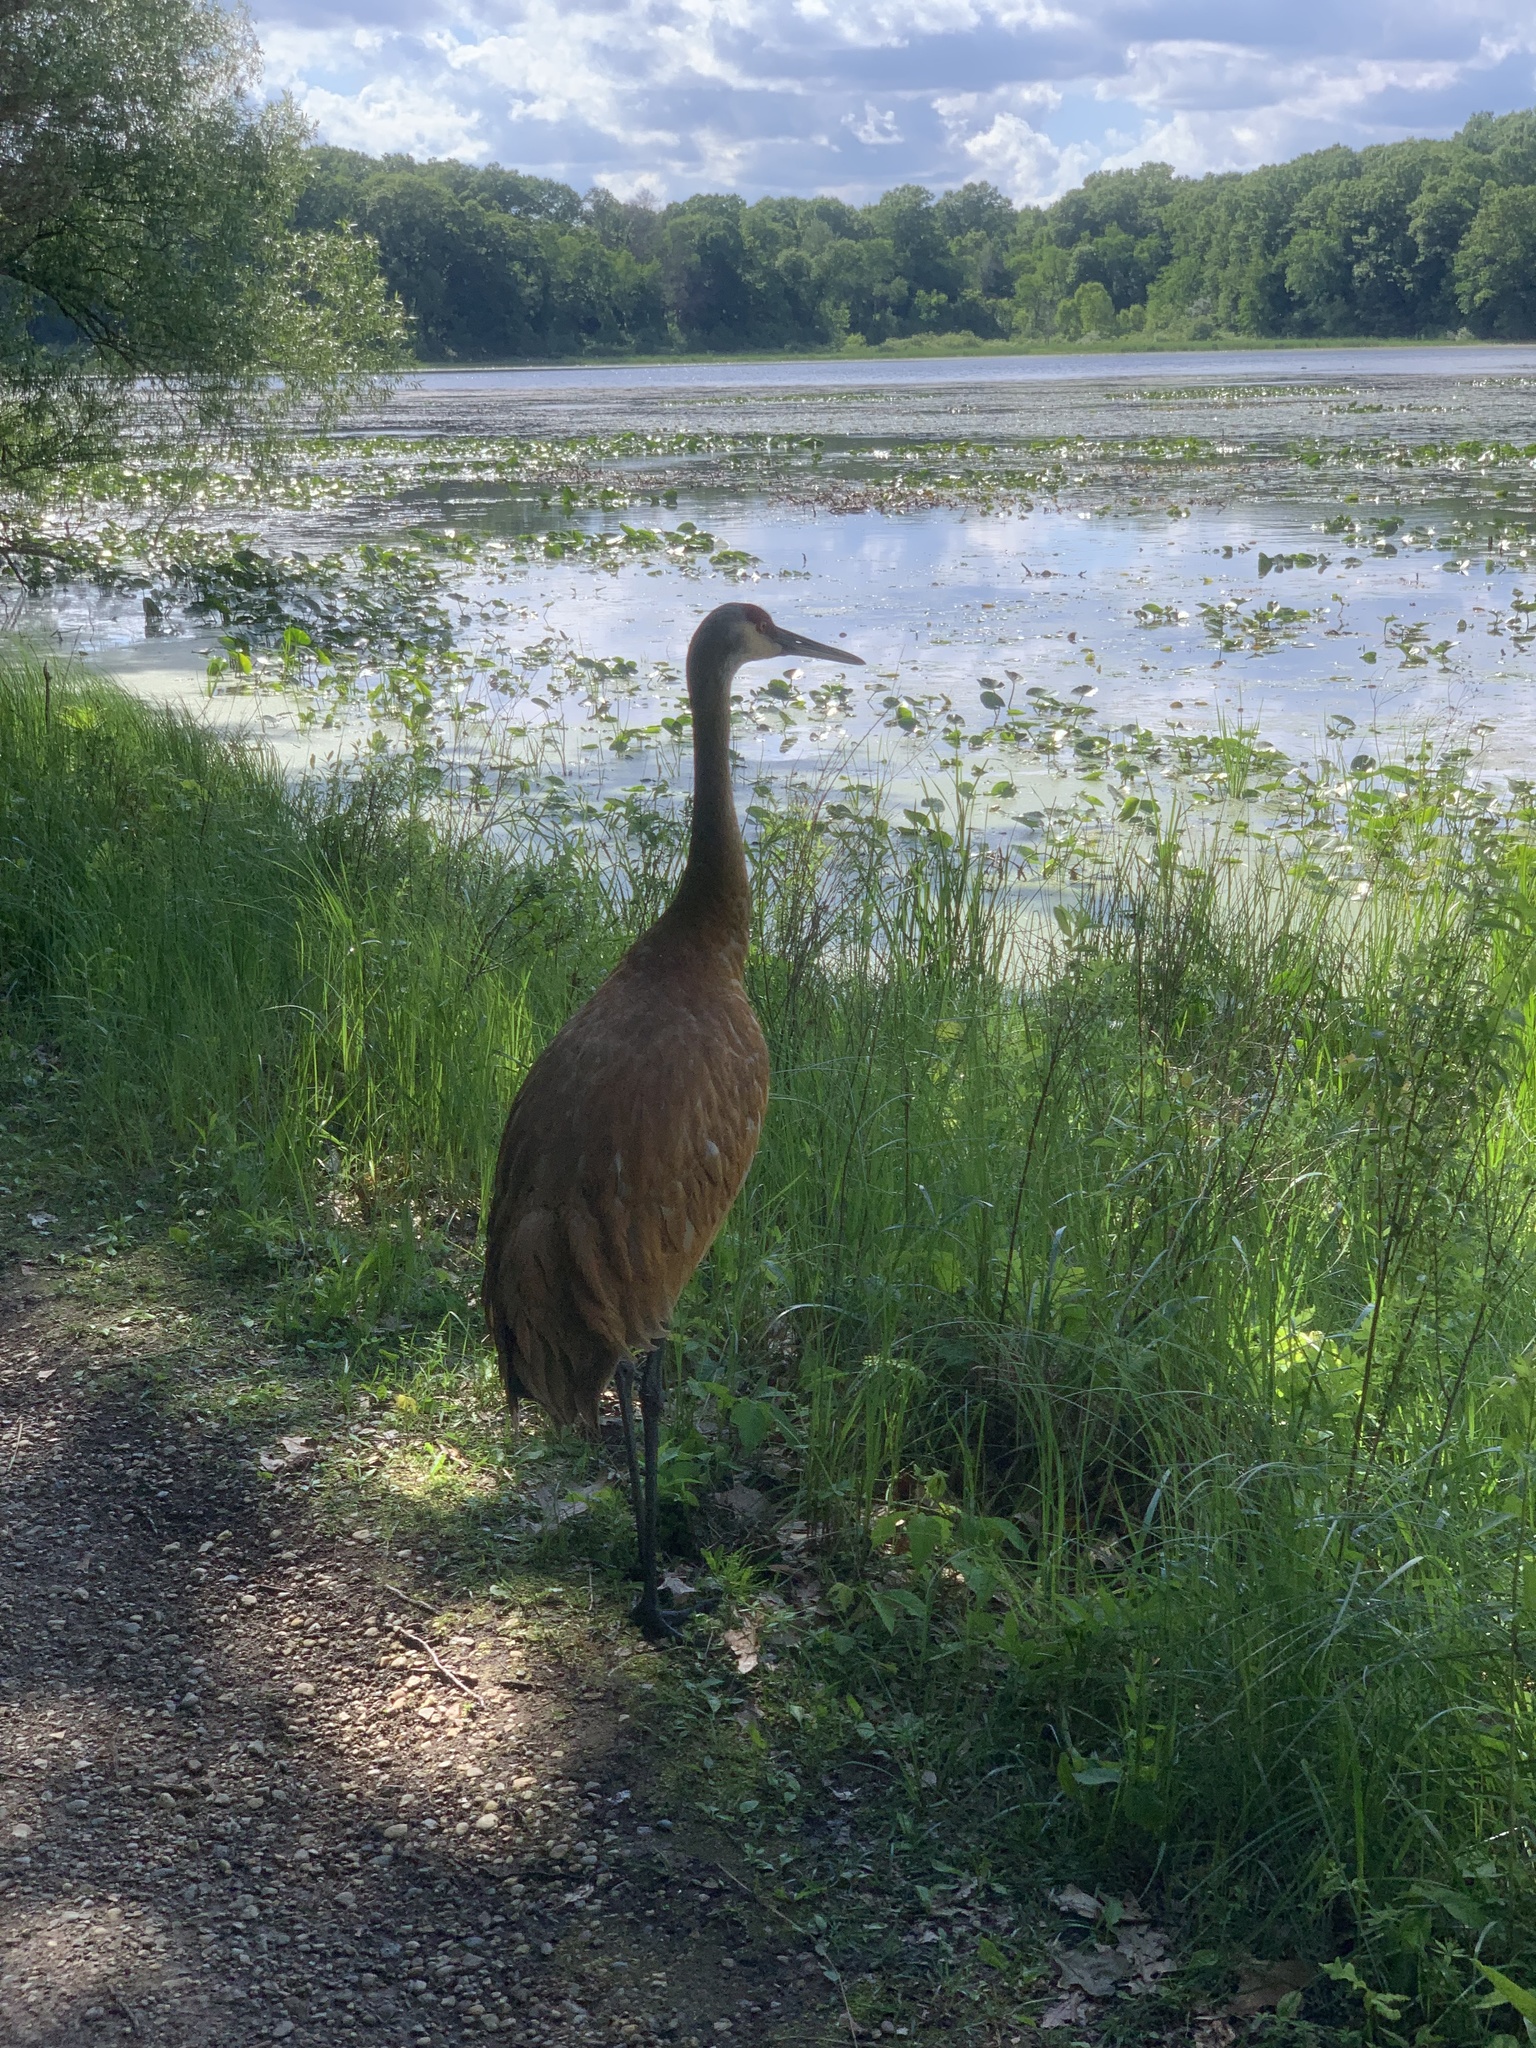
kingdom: Animalia
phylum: Chordata
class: Aves
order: Gruiformes
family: Gruidae
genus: Grus
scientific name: Grus canadensis
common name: Sandhill crane
